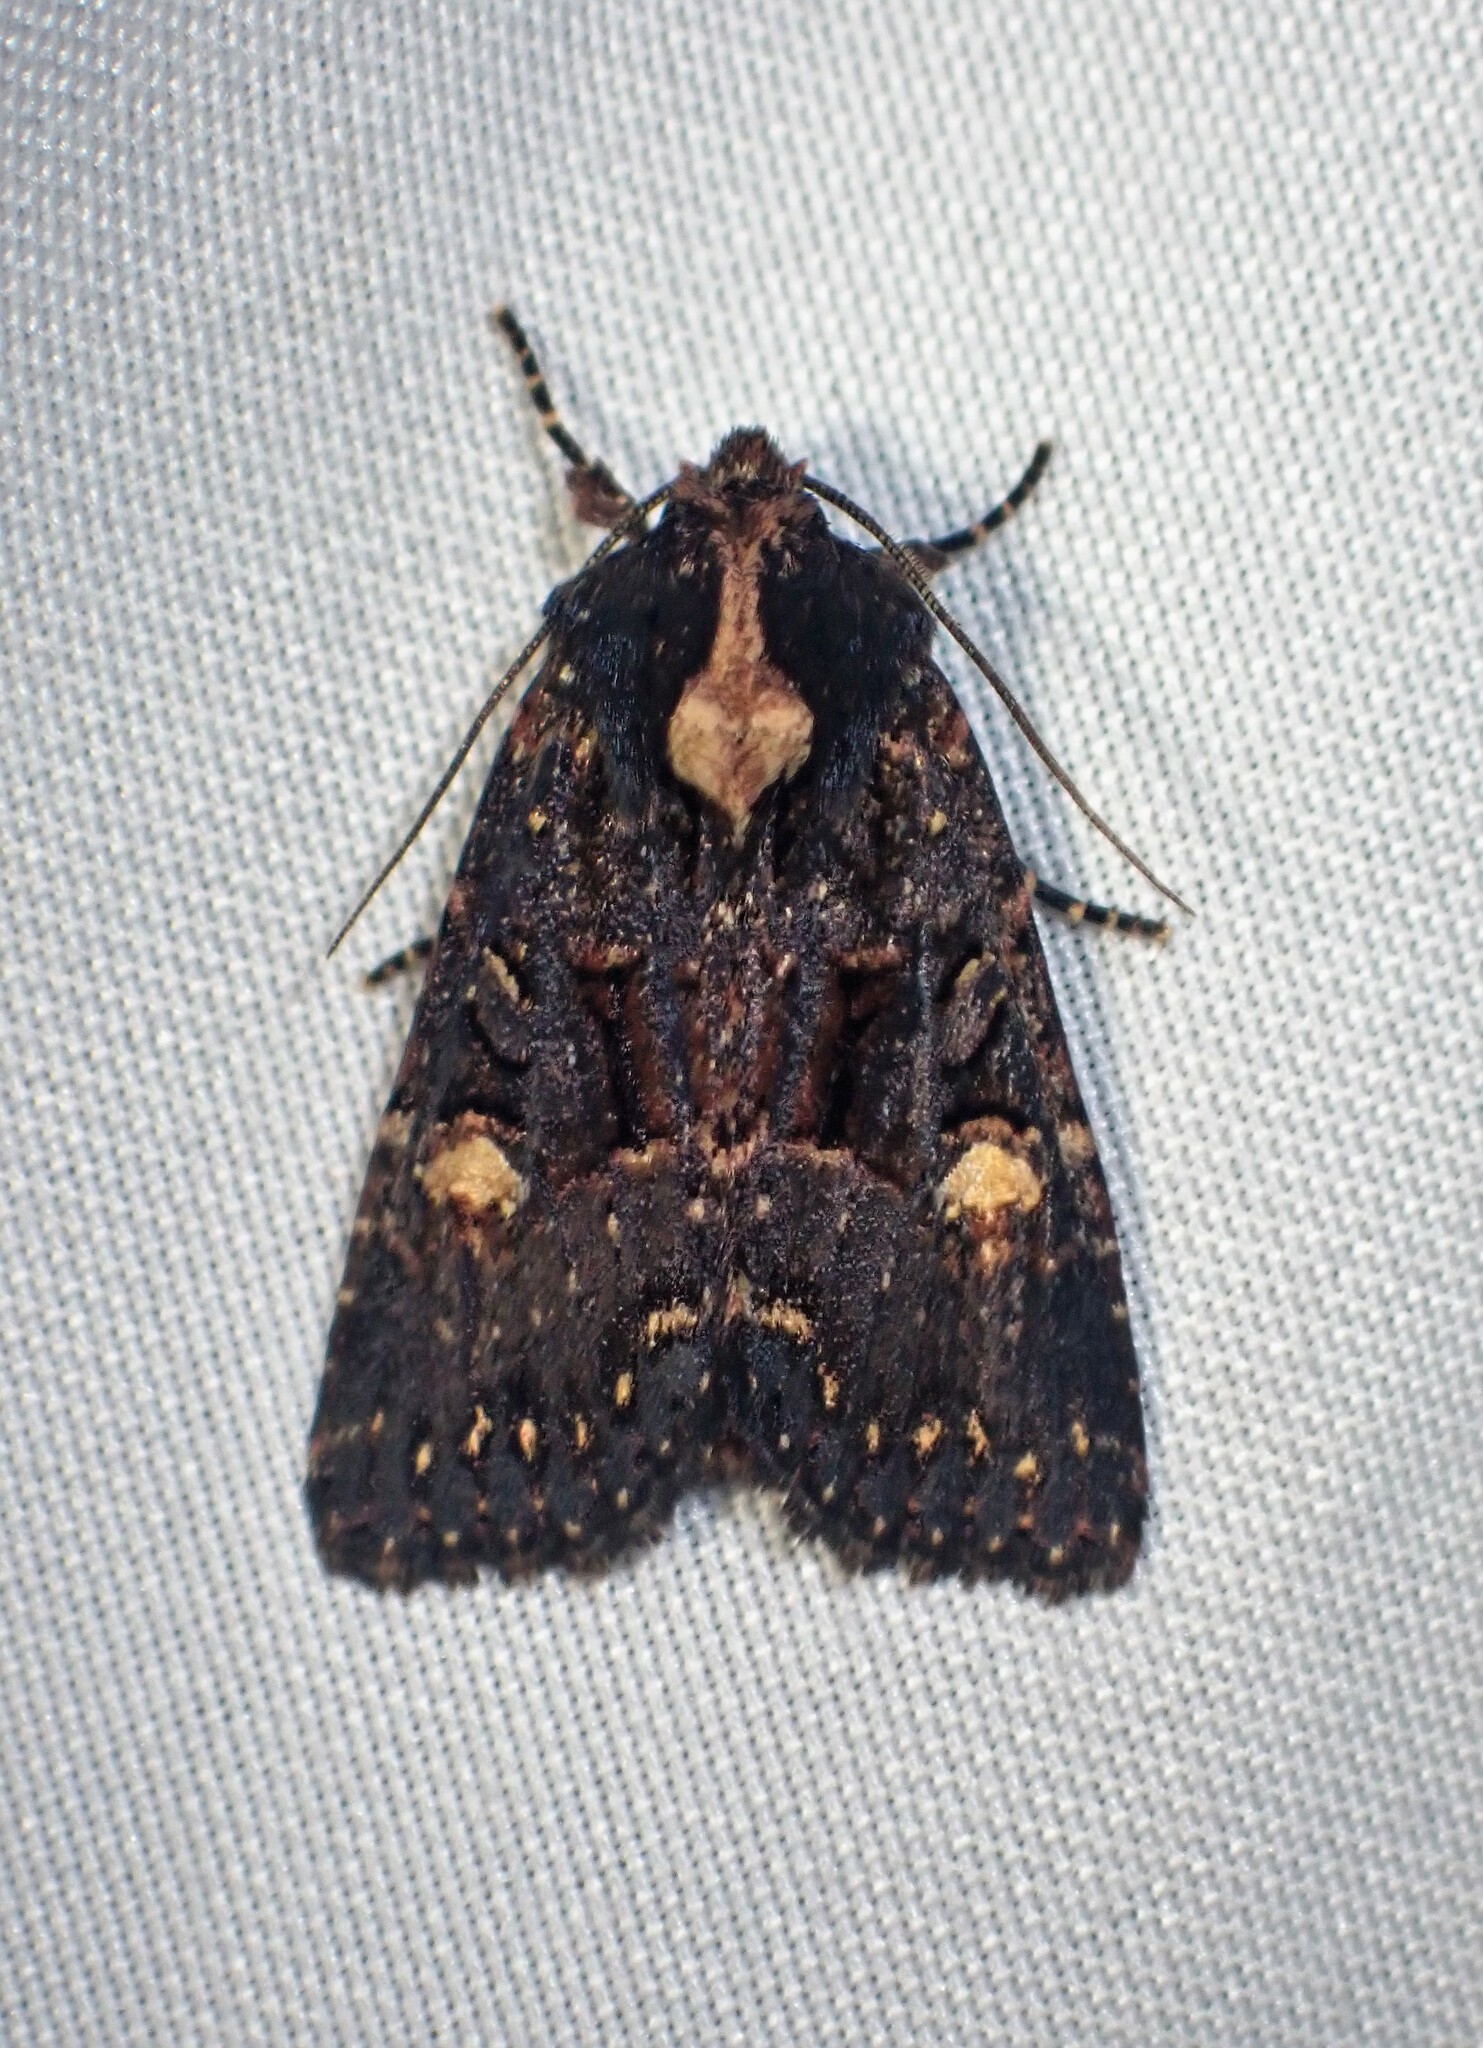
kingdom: Animalia
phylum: Arthropoda
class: Insecta
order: Lepidoptera
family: Noctuidae
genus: Mesapamea
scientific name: Mesapamea storai
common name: Owlet moth
